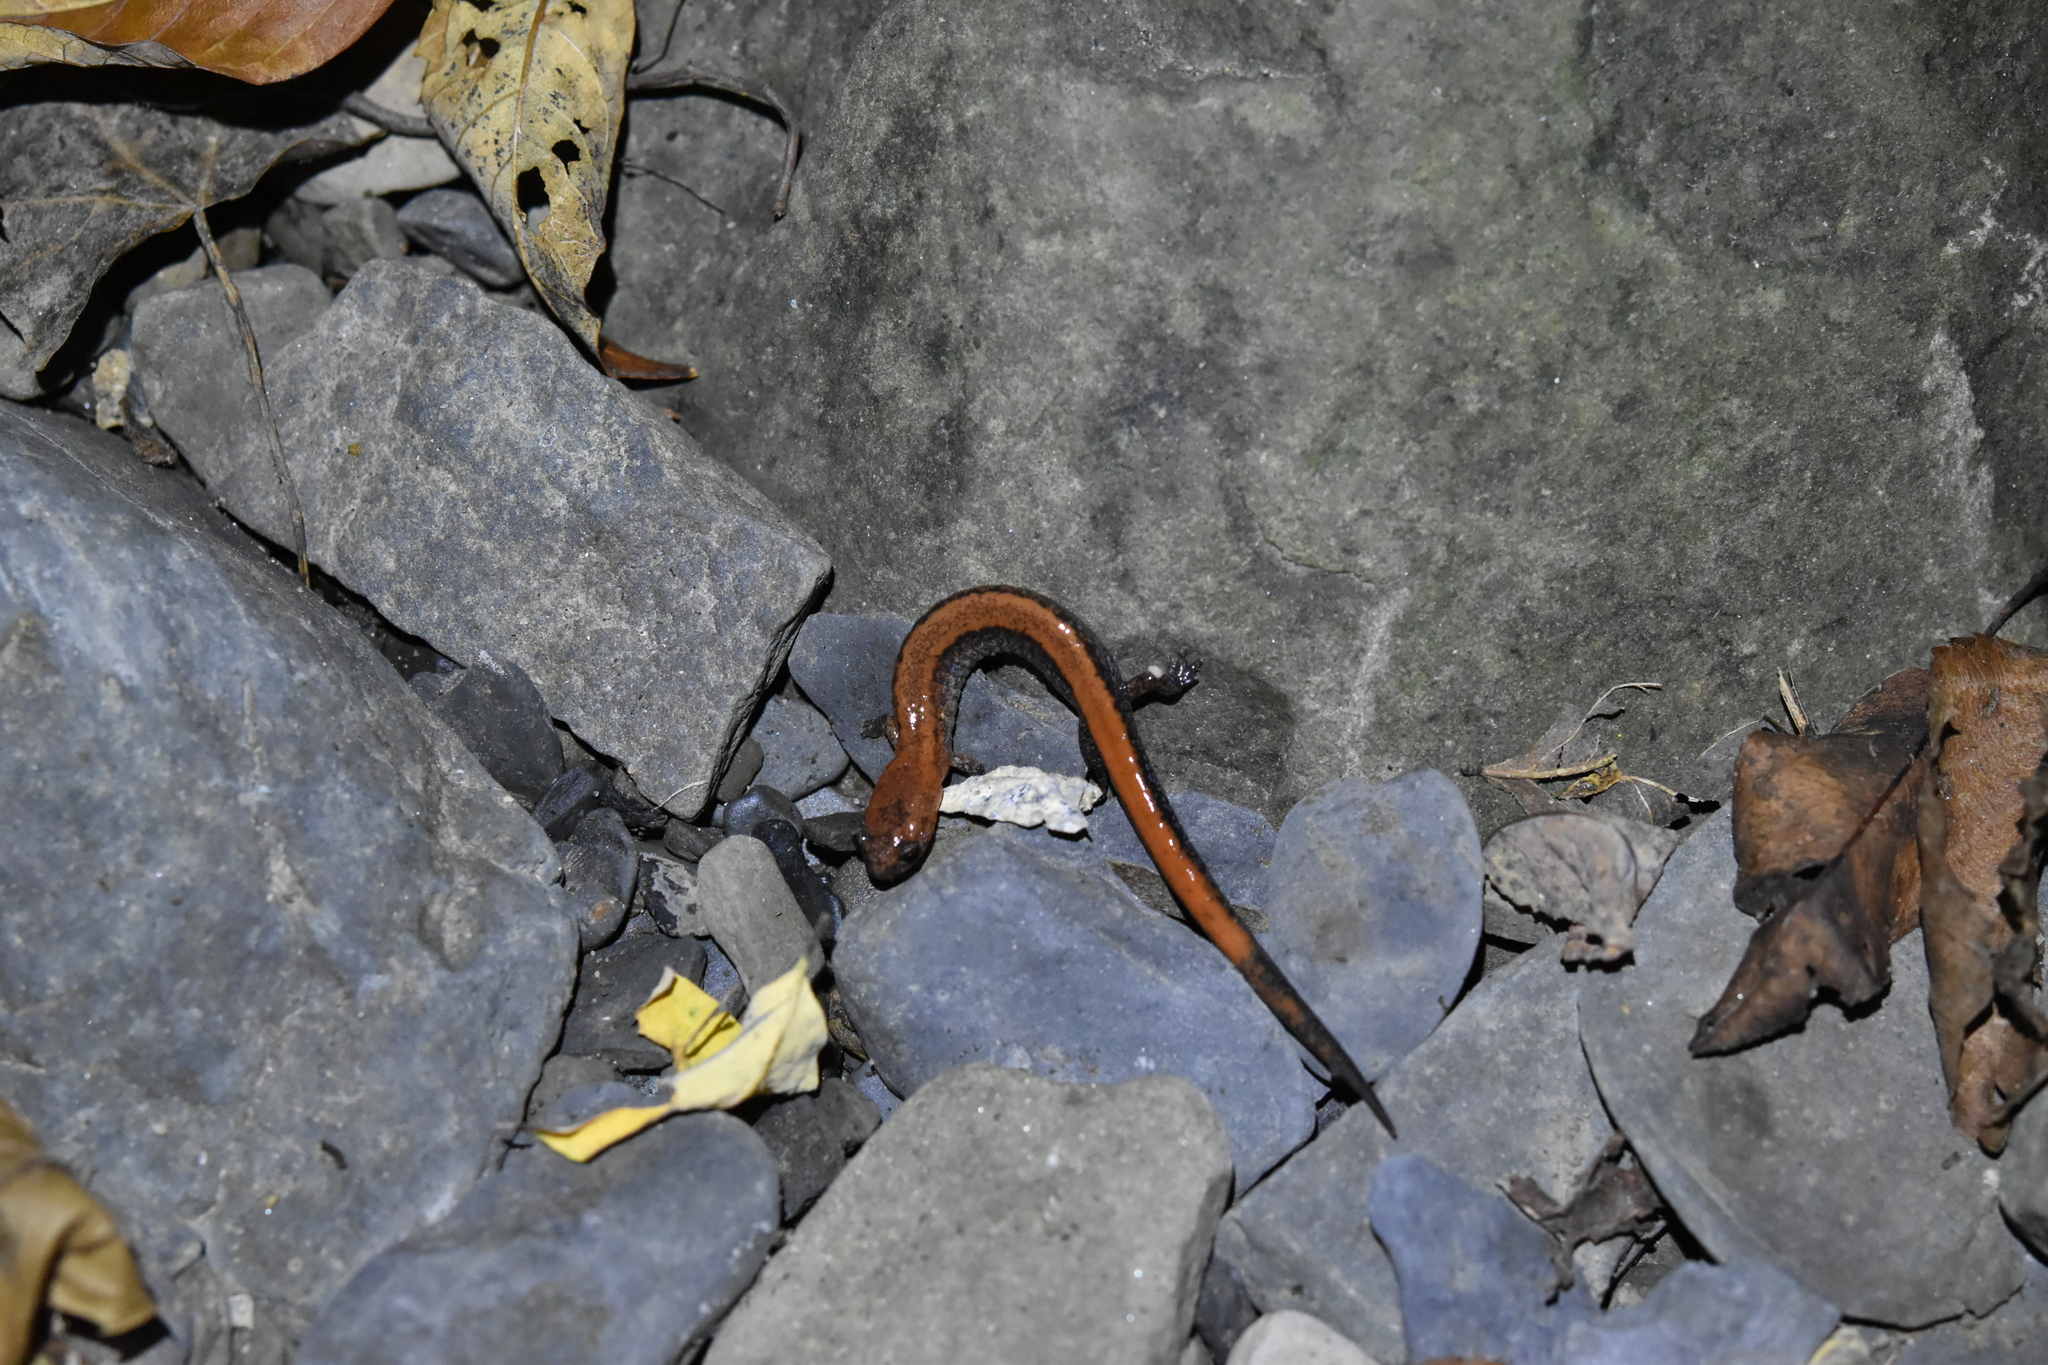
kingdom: Animalia
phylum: Chordata
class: Amphibia
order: Caudata
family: Plethodontidae
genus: Plethodon
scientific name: Plethodon cinereus
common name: Redback salamander
